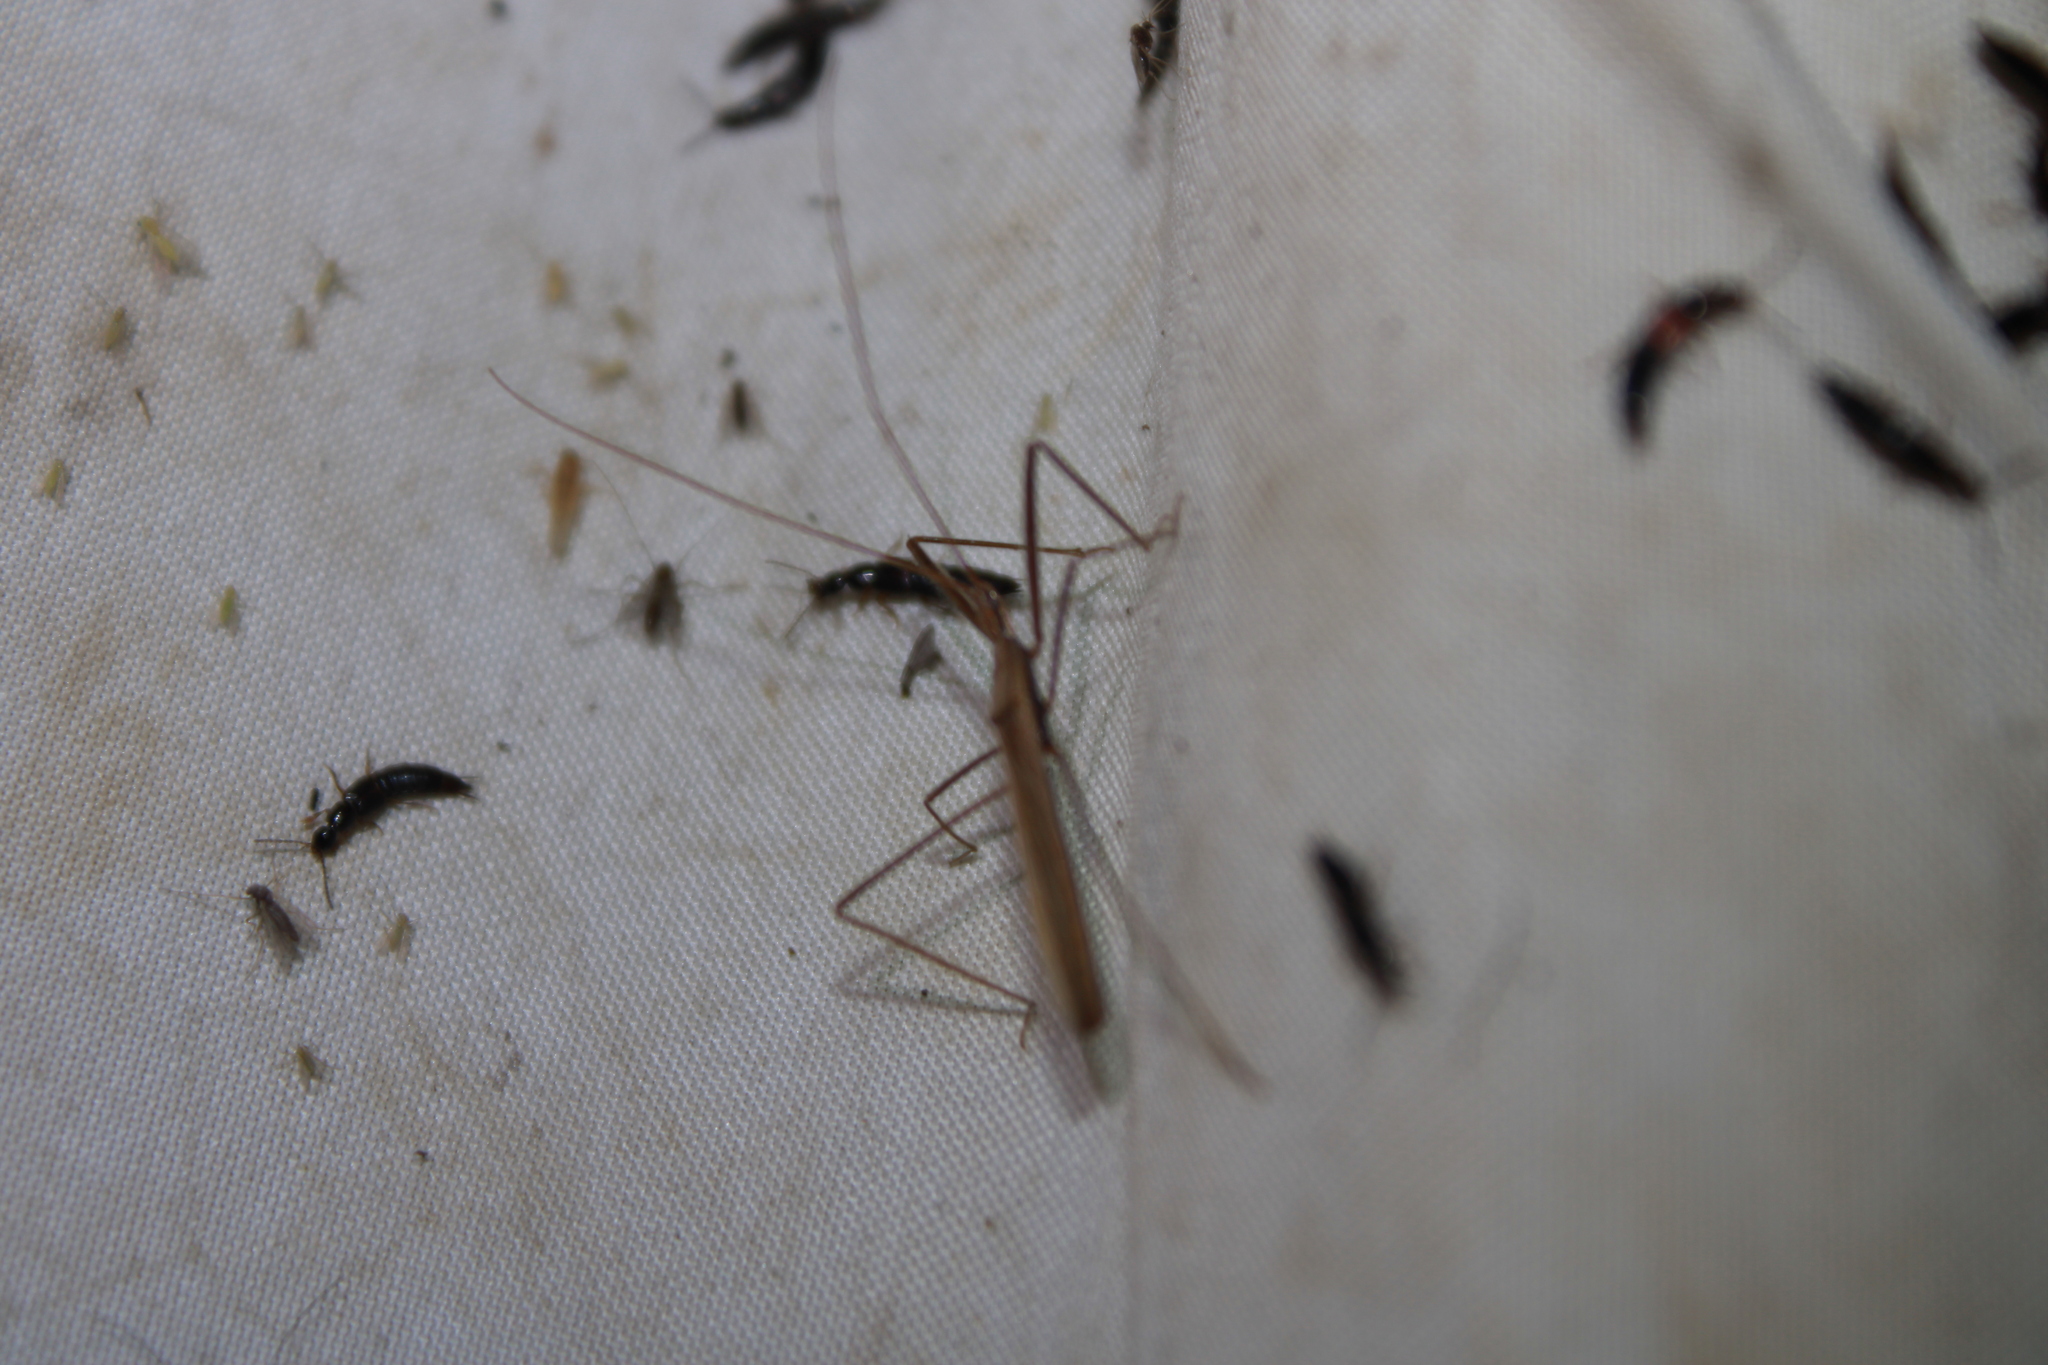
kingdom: Animalia
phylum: Arthropoda
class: Insecta
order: Hemiptera
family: Reduviidae
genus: Doldina
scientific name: Doldina interjungens
